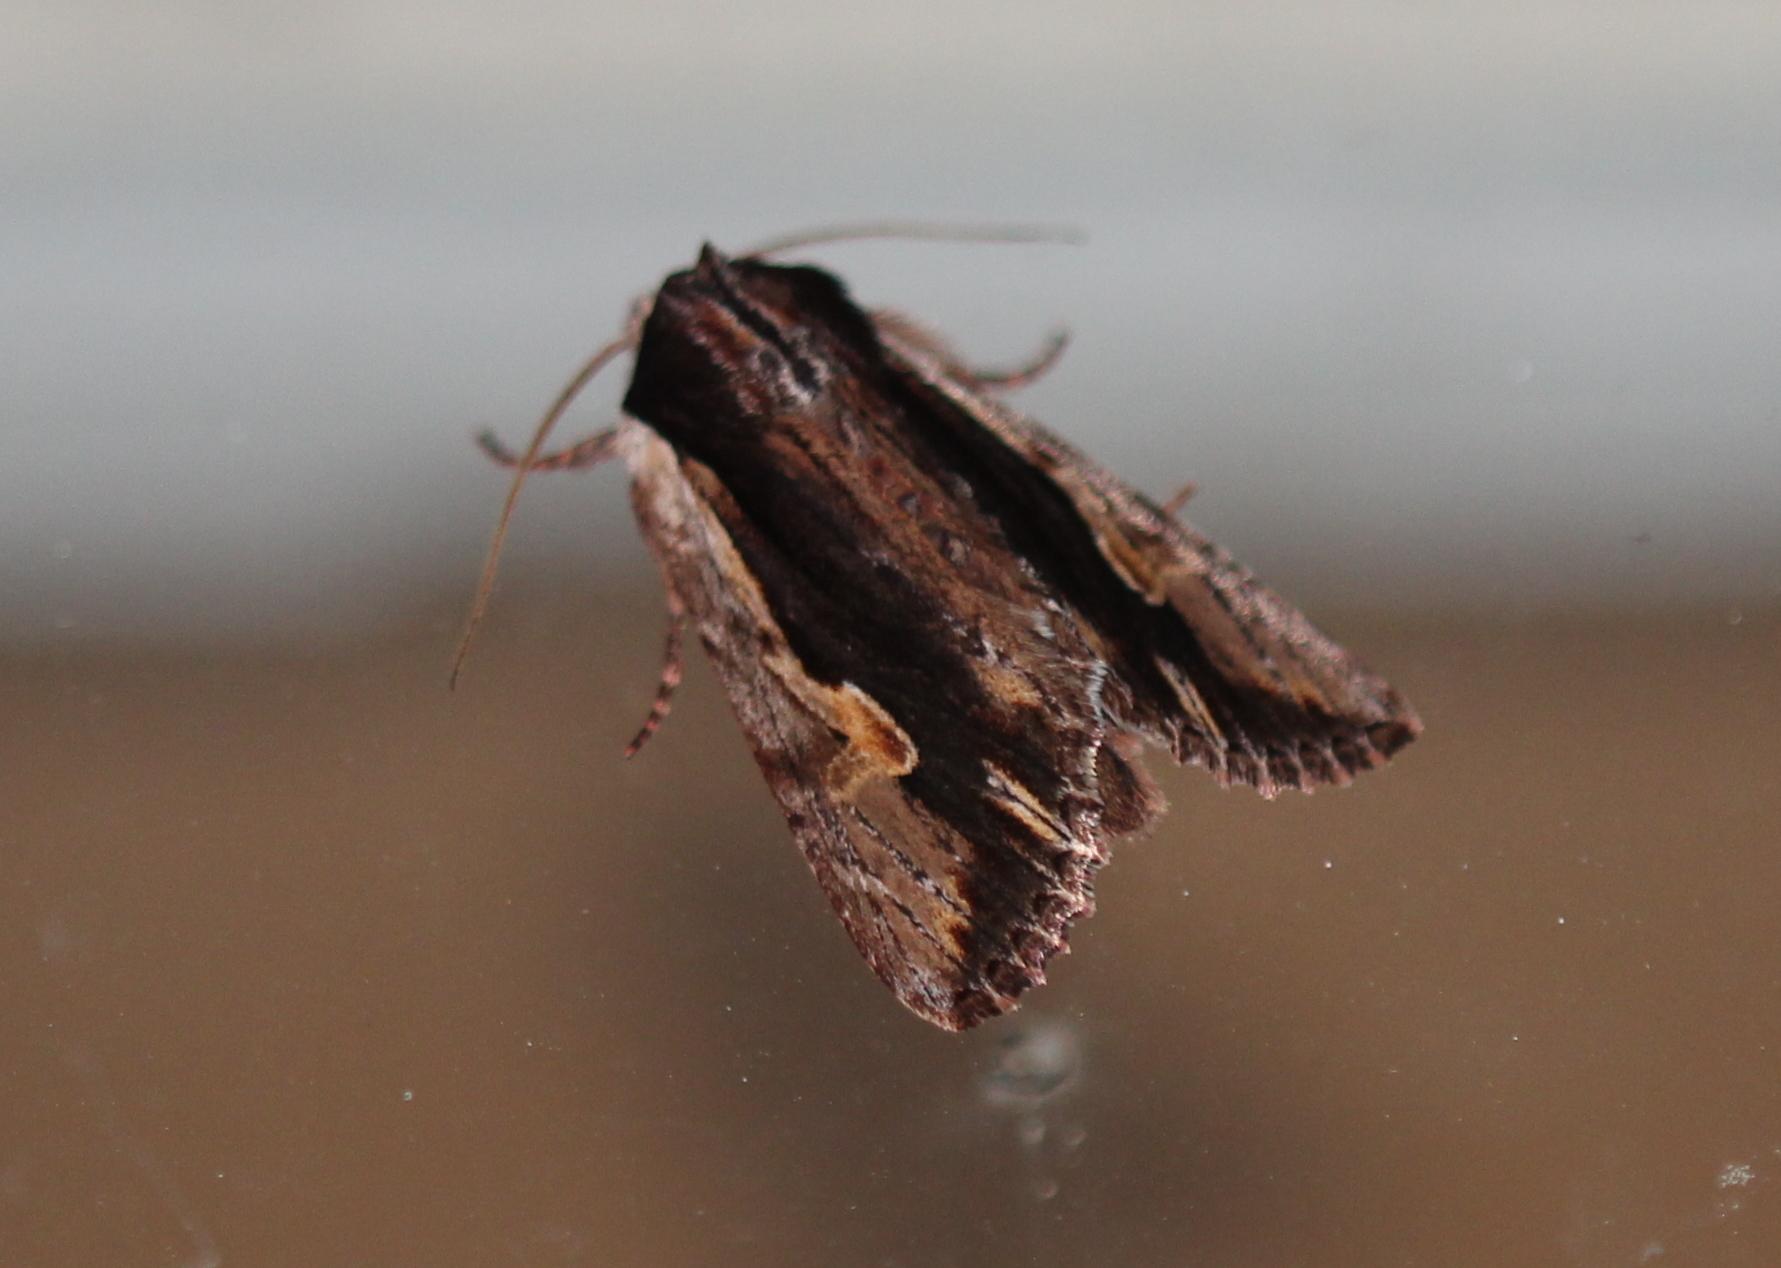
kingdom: Animalia
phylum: Arthropoda
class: Insecta
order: Lepidoptera
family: Noctuidae
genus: Achatia
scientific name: Achatia evicta
